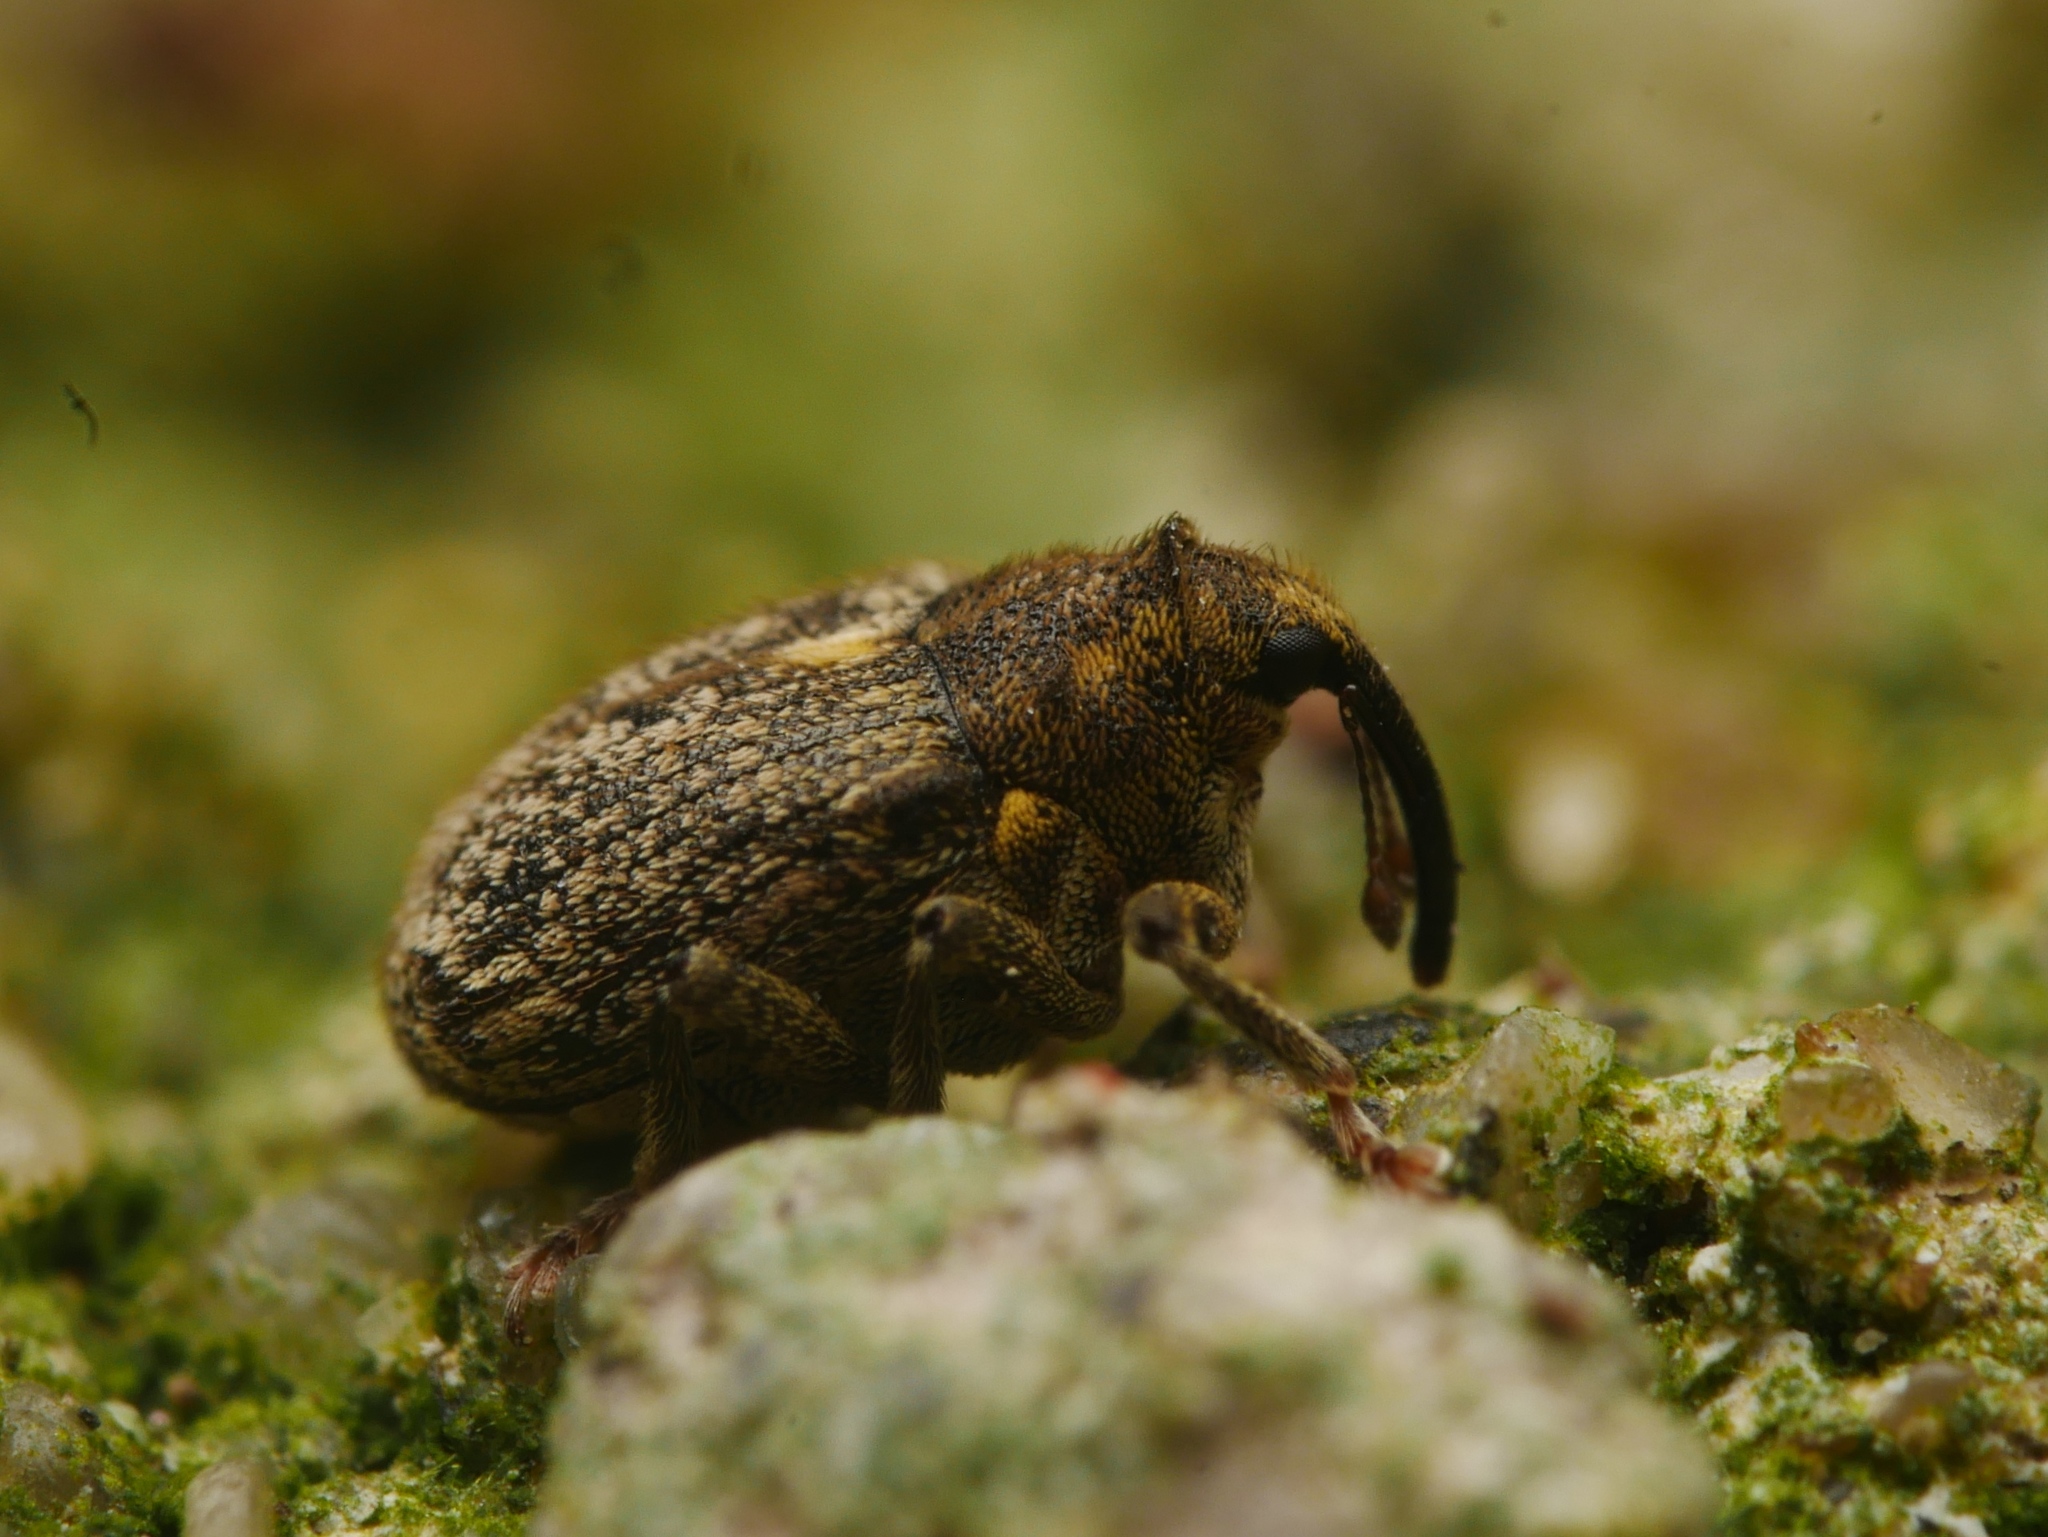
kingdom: Animalia
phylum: Arthropoda
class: Insecta
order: Coleoptera
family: Curculionidae
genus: Ceutorhynchus
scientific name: Ceutorhynchus pallidactylus
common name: Cabbage stem weavil
